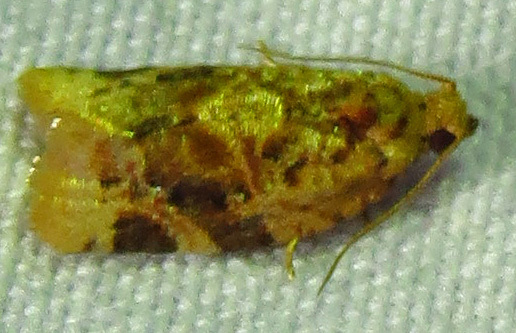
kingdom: Animalia
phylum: Arthropoda
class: Insecta
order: Lepidoptera
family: Tortricidae
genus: Argyrotaenia
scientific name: Argyrotaenia velutinana
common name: Red-banded leafroller moth
